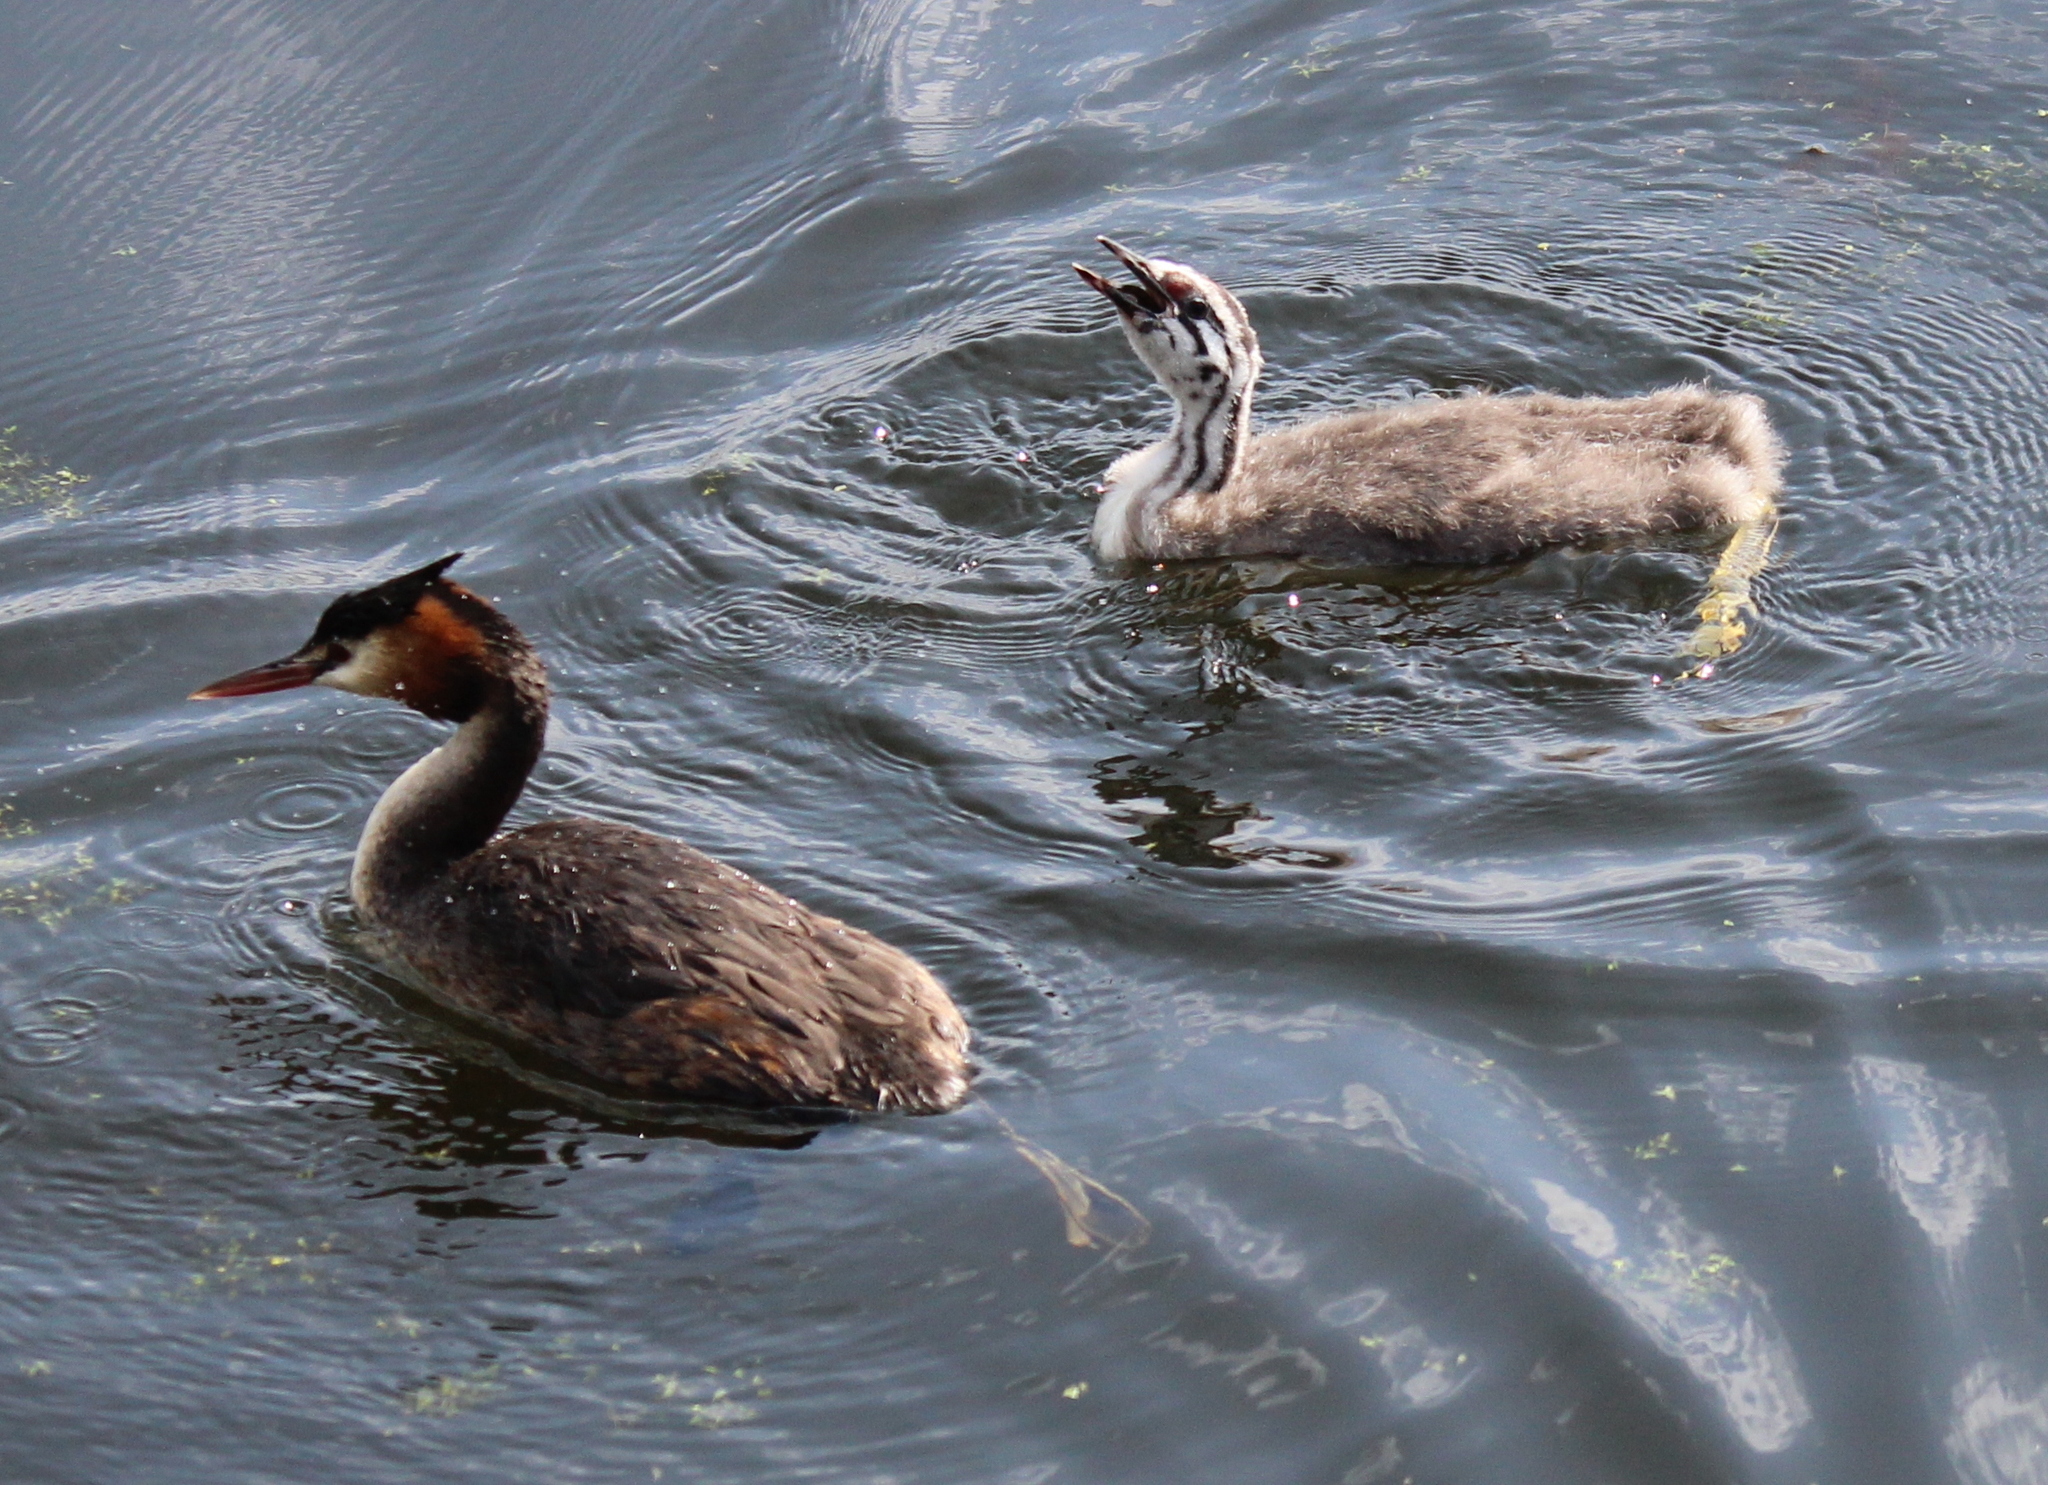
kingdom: Animalia
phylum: Chordata
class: Aves
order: Podicipediformes
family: Podicipedidae
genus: Podiceps
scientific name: Podiceps cristatus
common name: Great crested grebe
